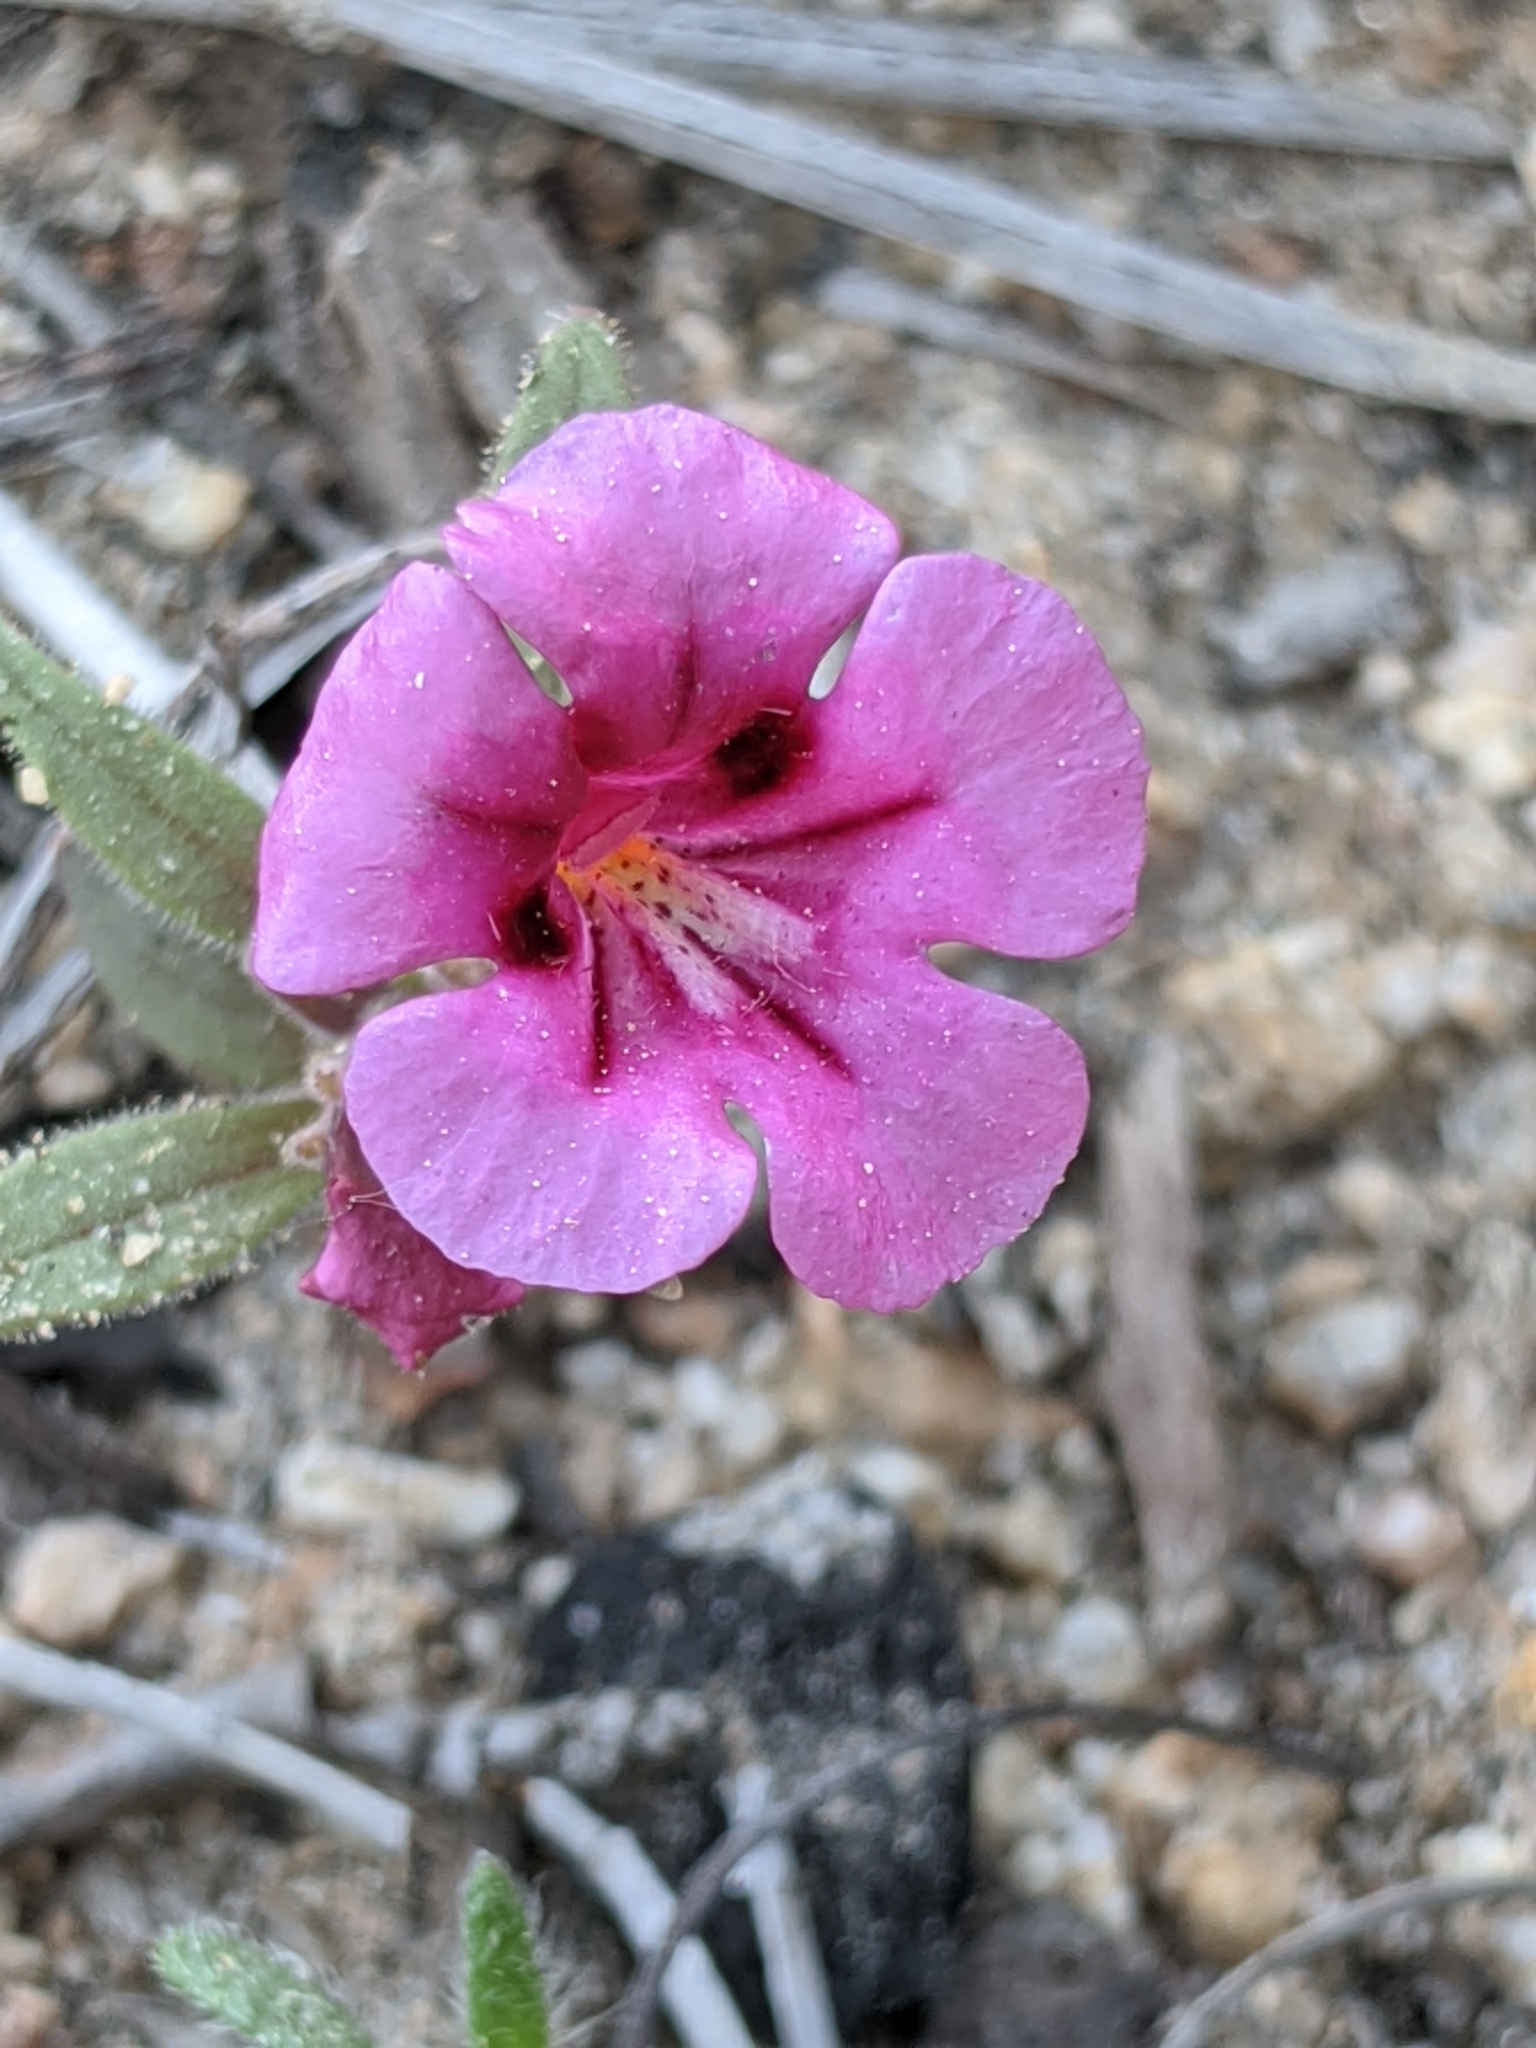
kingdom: Plantae
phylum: Tracheophyta
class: Magnoliopsida
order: Lamiales
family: Phrymaceae
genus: Diplacus
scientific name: Diplacus bicolor
